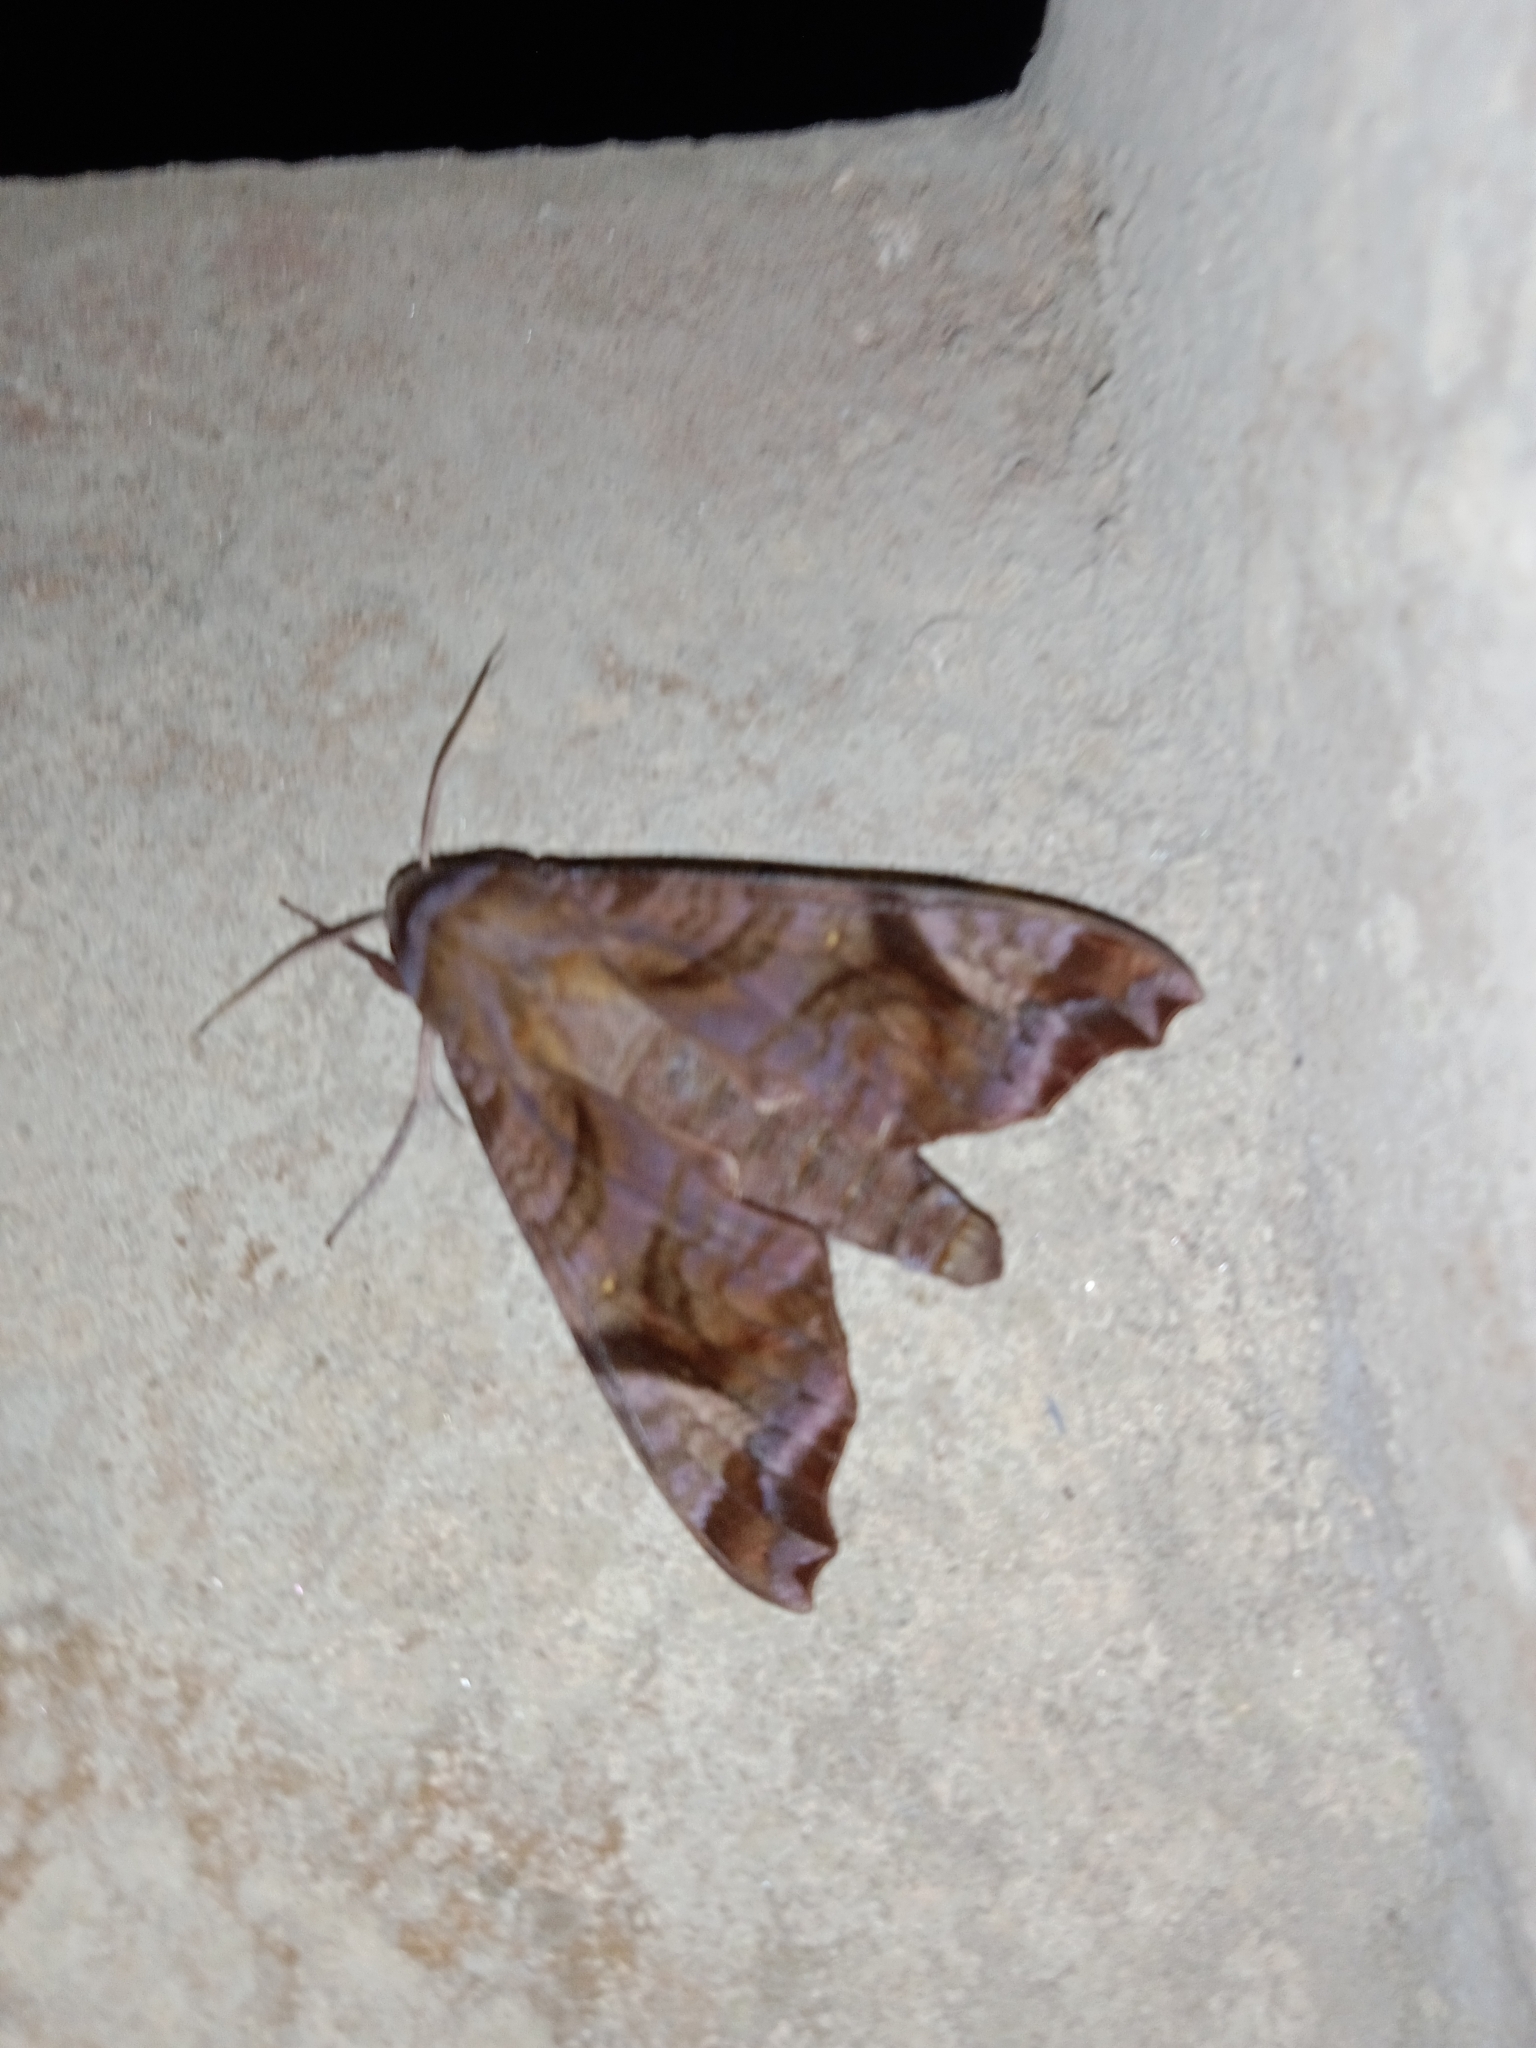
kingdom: Animalia
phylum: Arthropoda
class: Insecta
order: Lepidoptera
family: Sphingidae
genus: Acosmeryx
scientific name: Acosmeryx anceus
